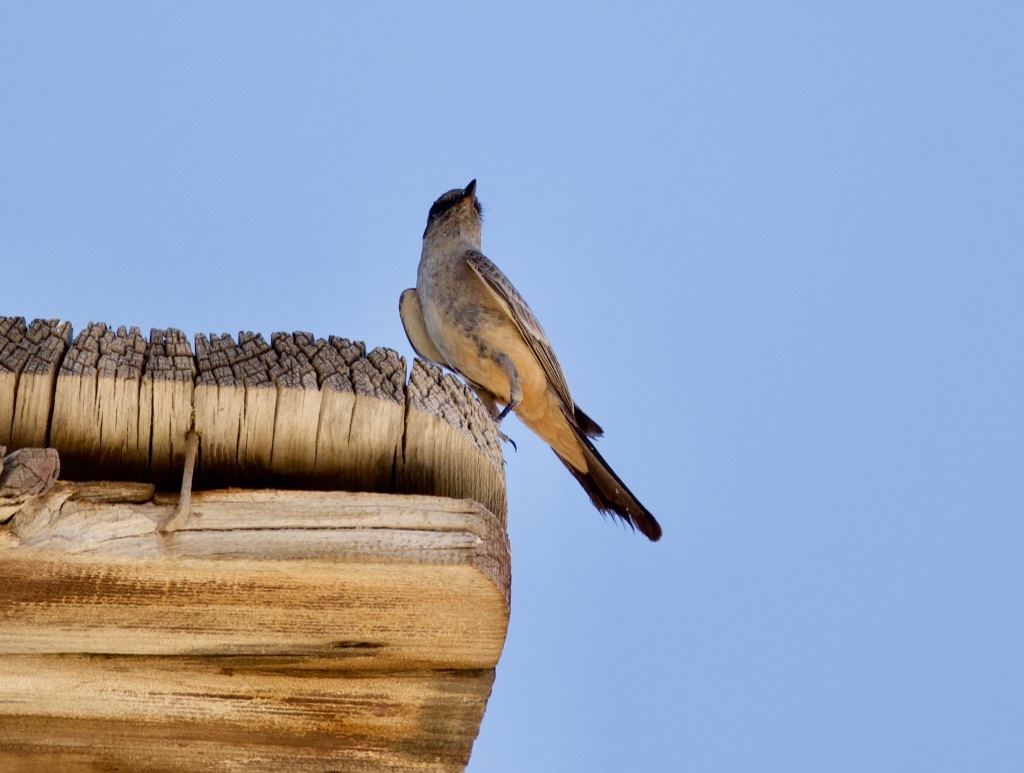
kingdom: Animalia
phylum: Chordata
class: Aves
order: Passeriformes
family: Tyrannidae
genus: Sayornis
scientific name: Sayornis saya
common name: Say's phoebe
